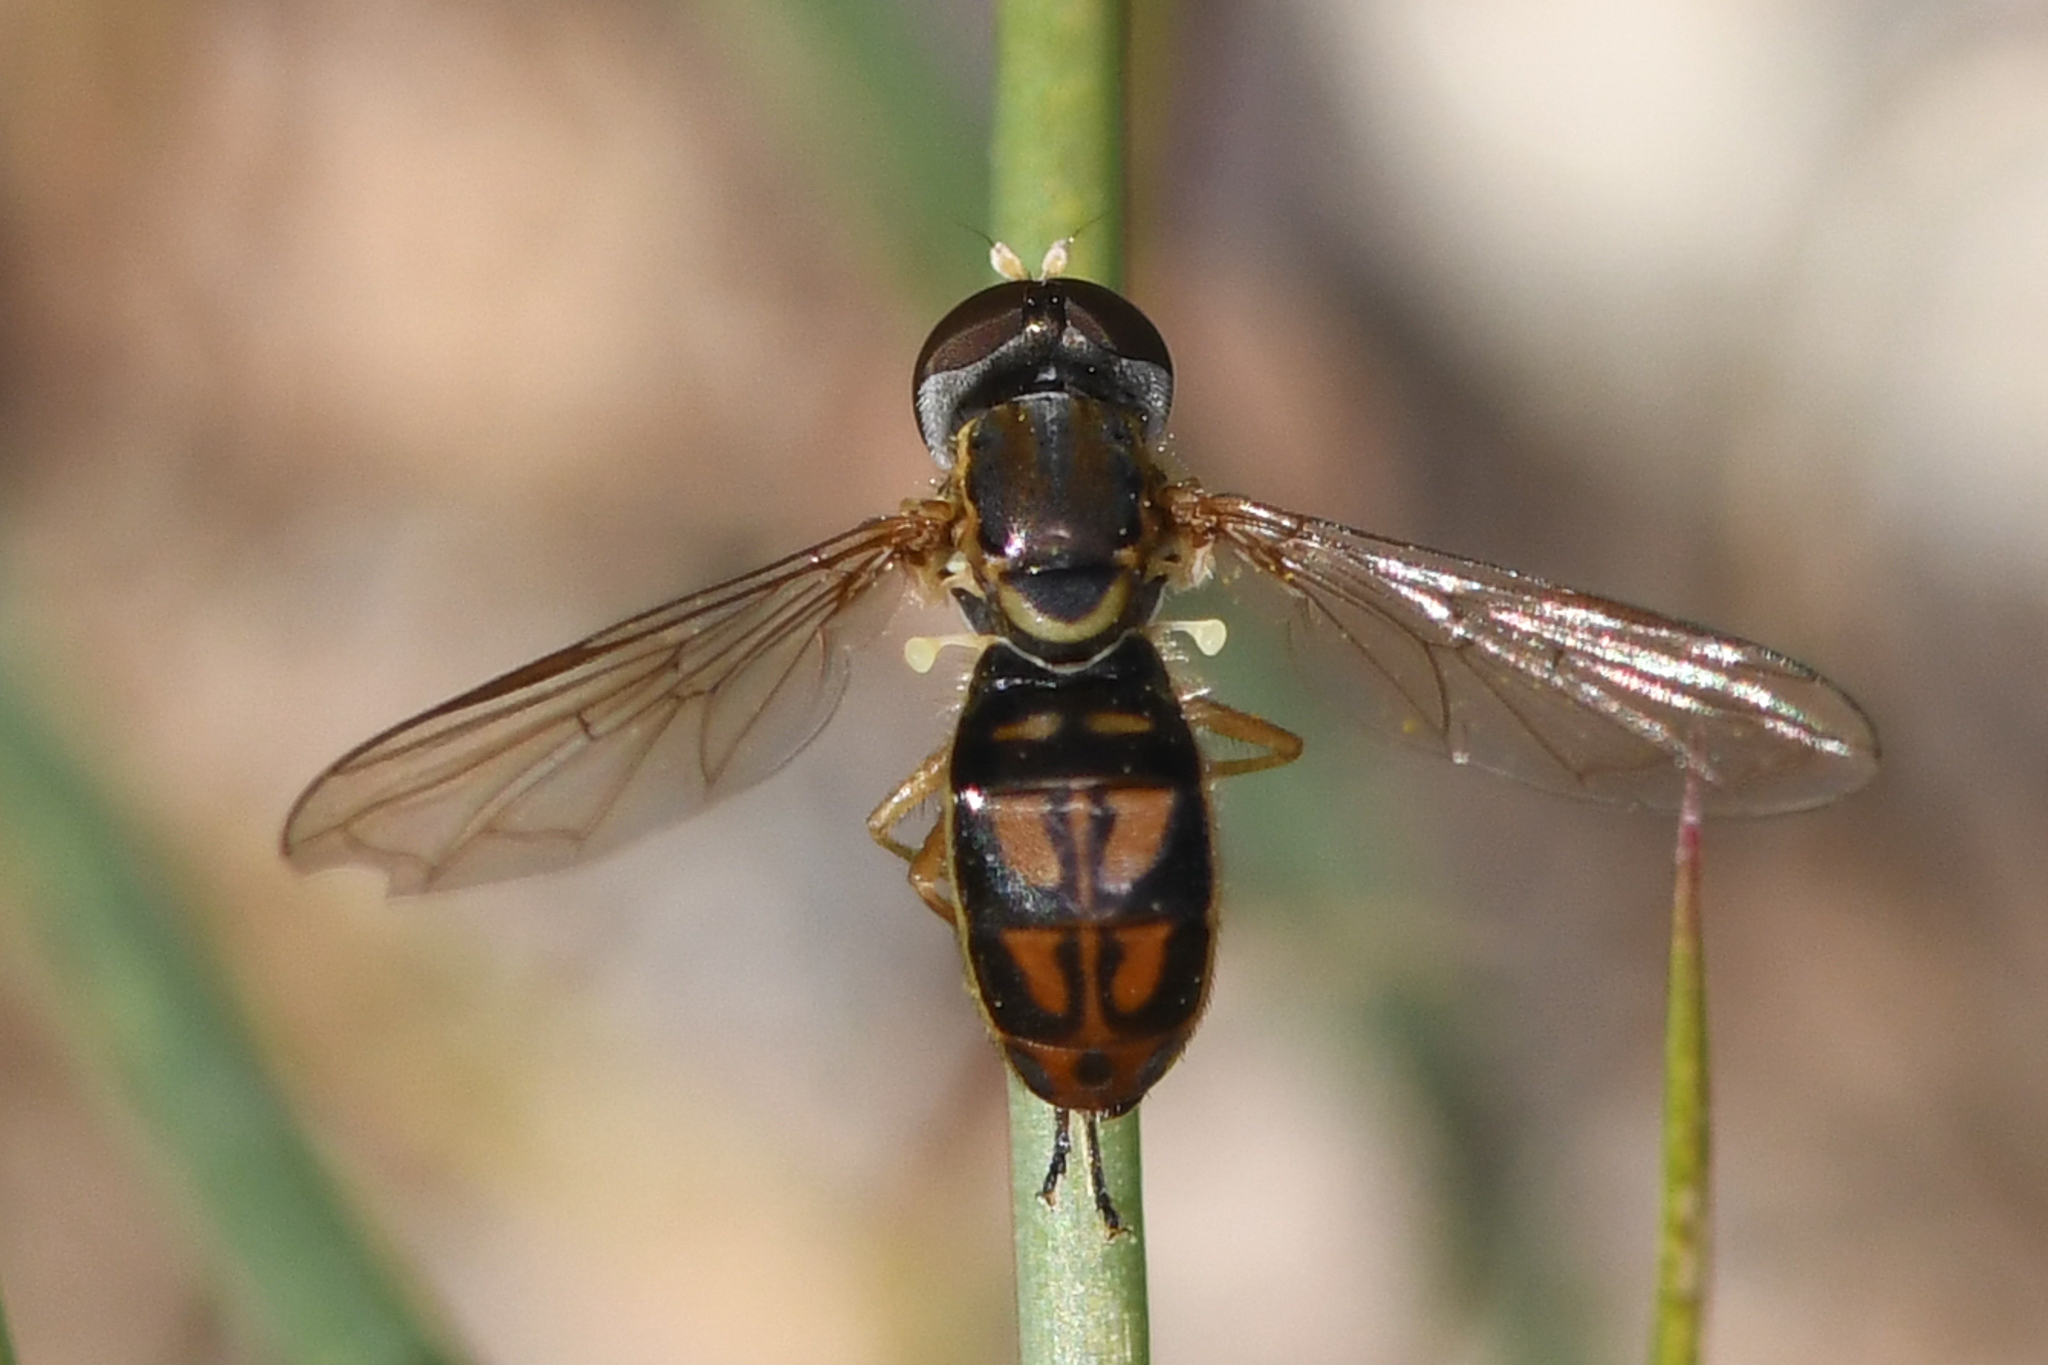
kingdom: Animalia
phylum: Arthropoda
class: Insecta
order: Diptera
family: Syrphidae
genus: Toxomerus
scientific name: Toxomerus marginatus
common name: Syrphid fly
